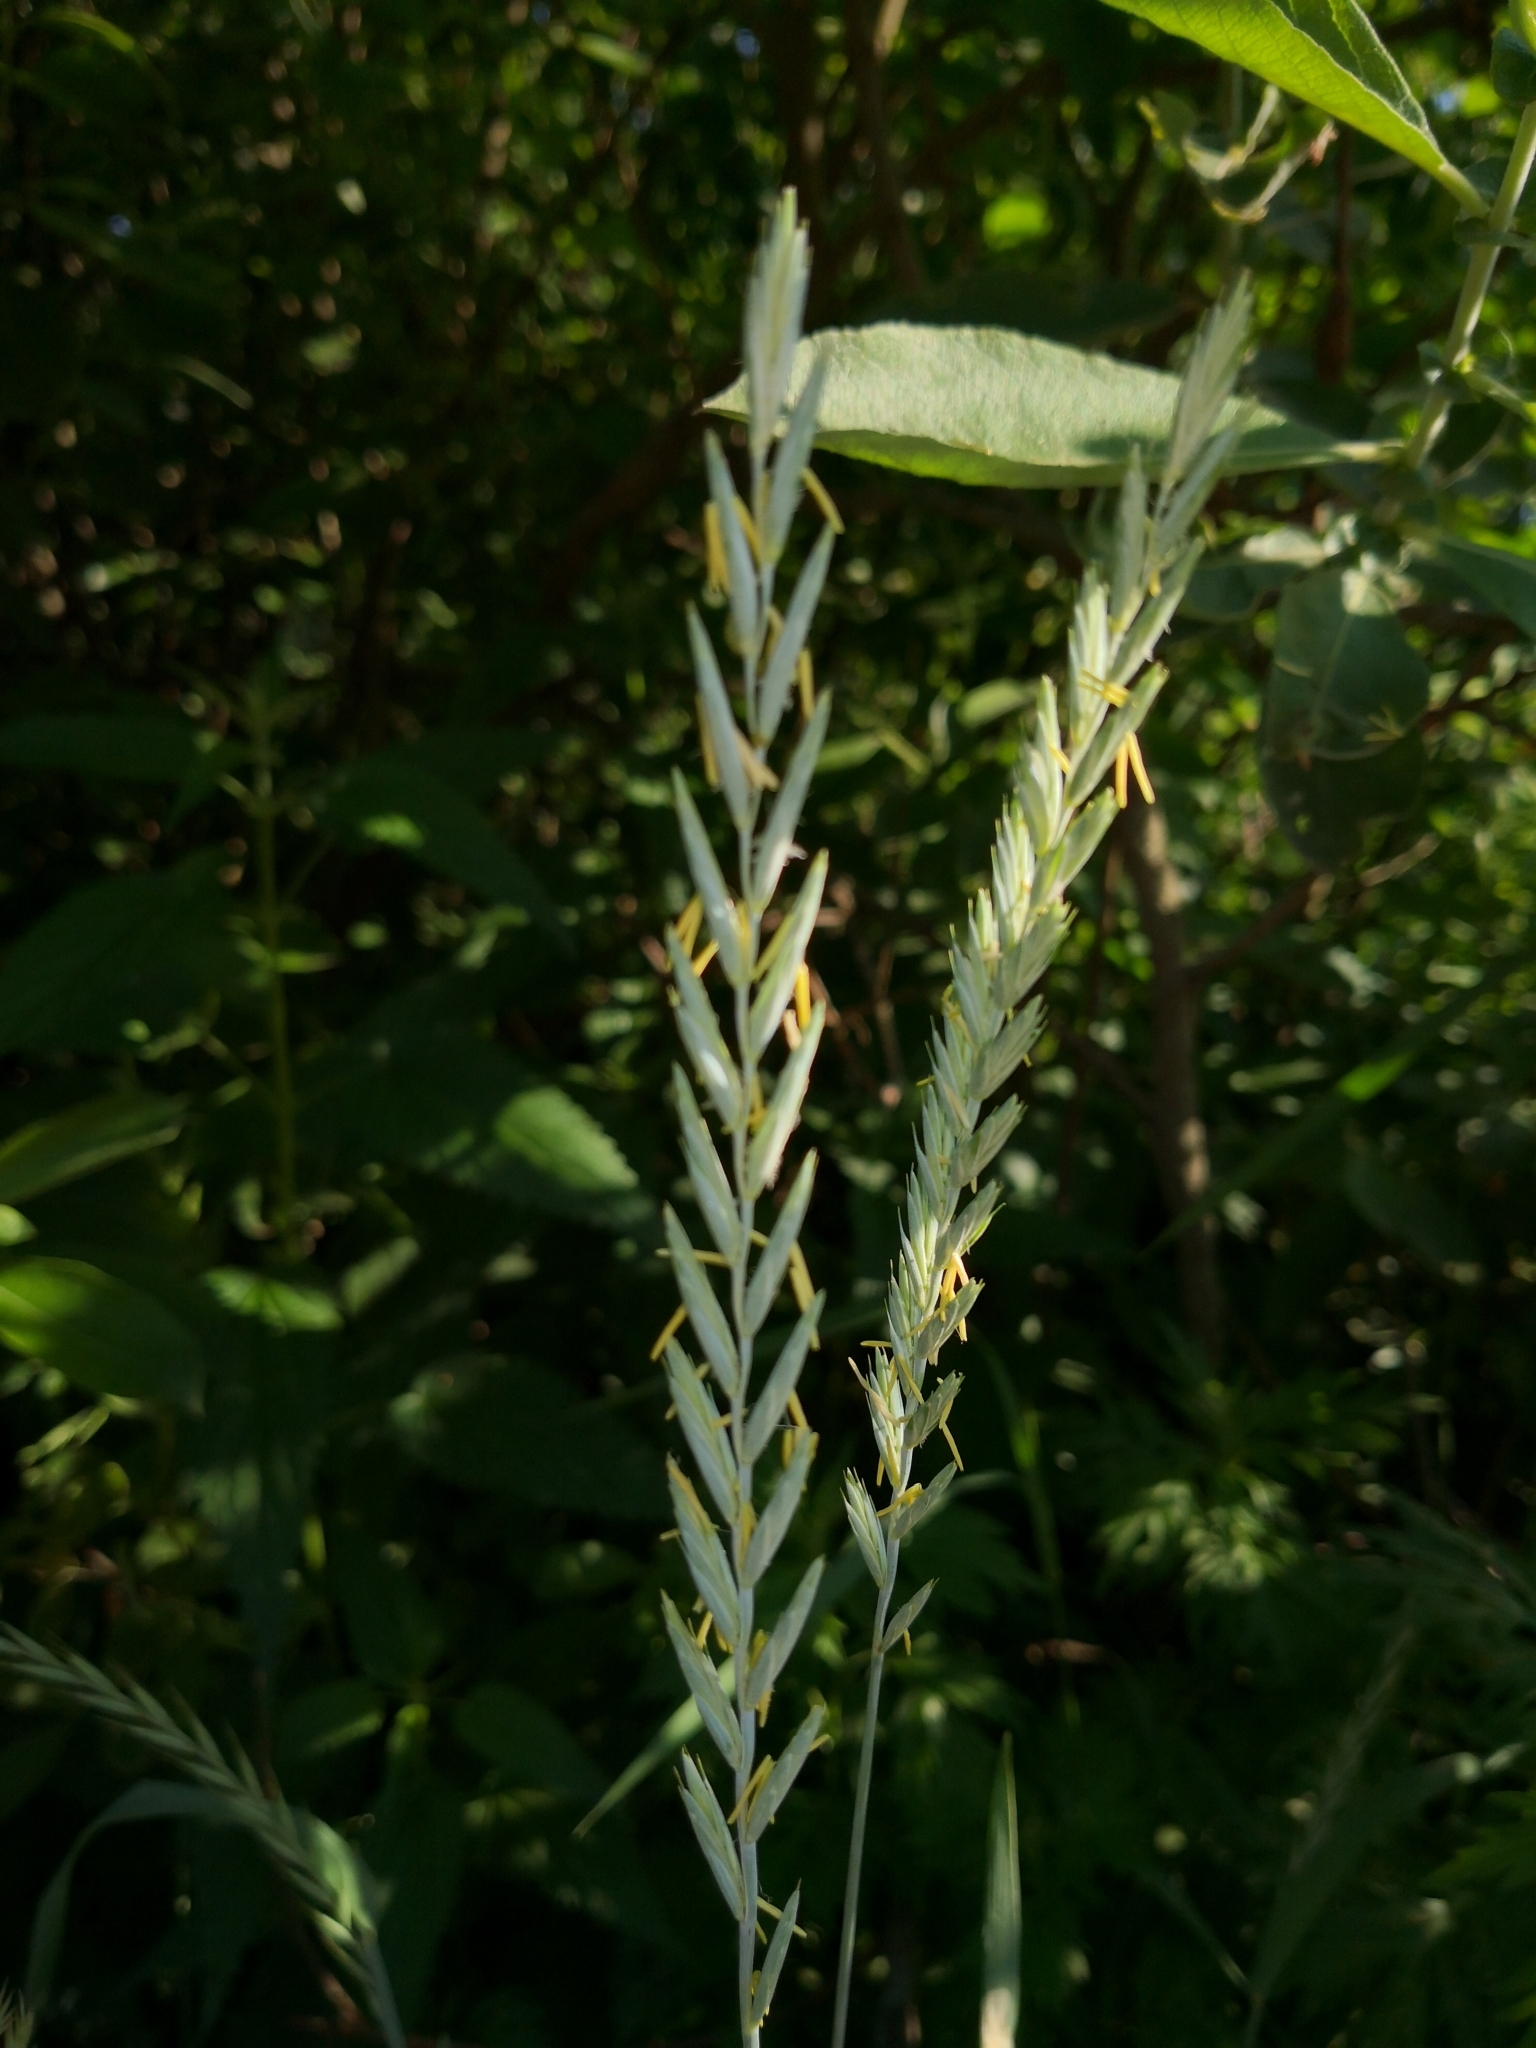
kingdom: Plantae
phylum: Tracheophyta
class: Liliopsida
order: Poales
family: Poaceae
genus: Elymus
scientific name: Elymus repens
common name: Quackgrass
